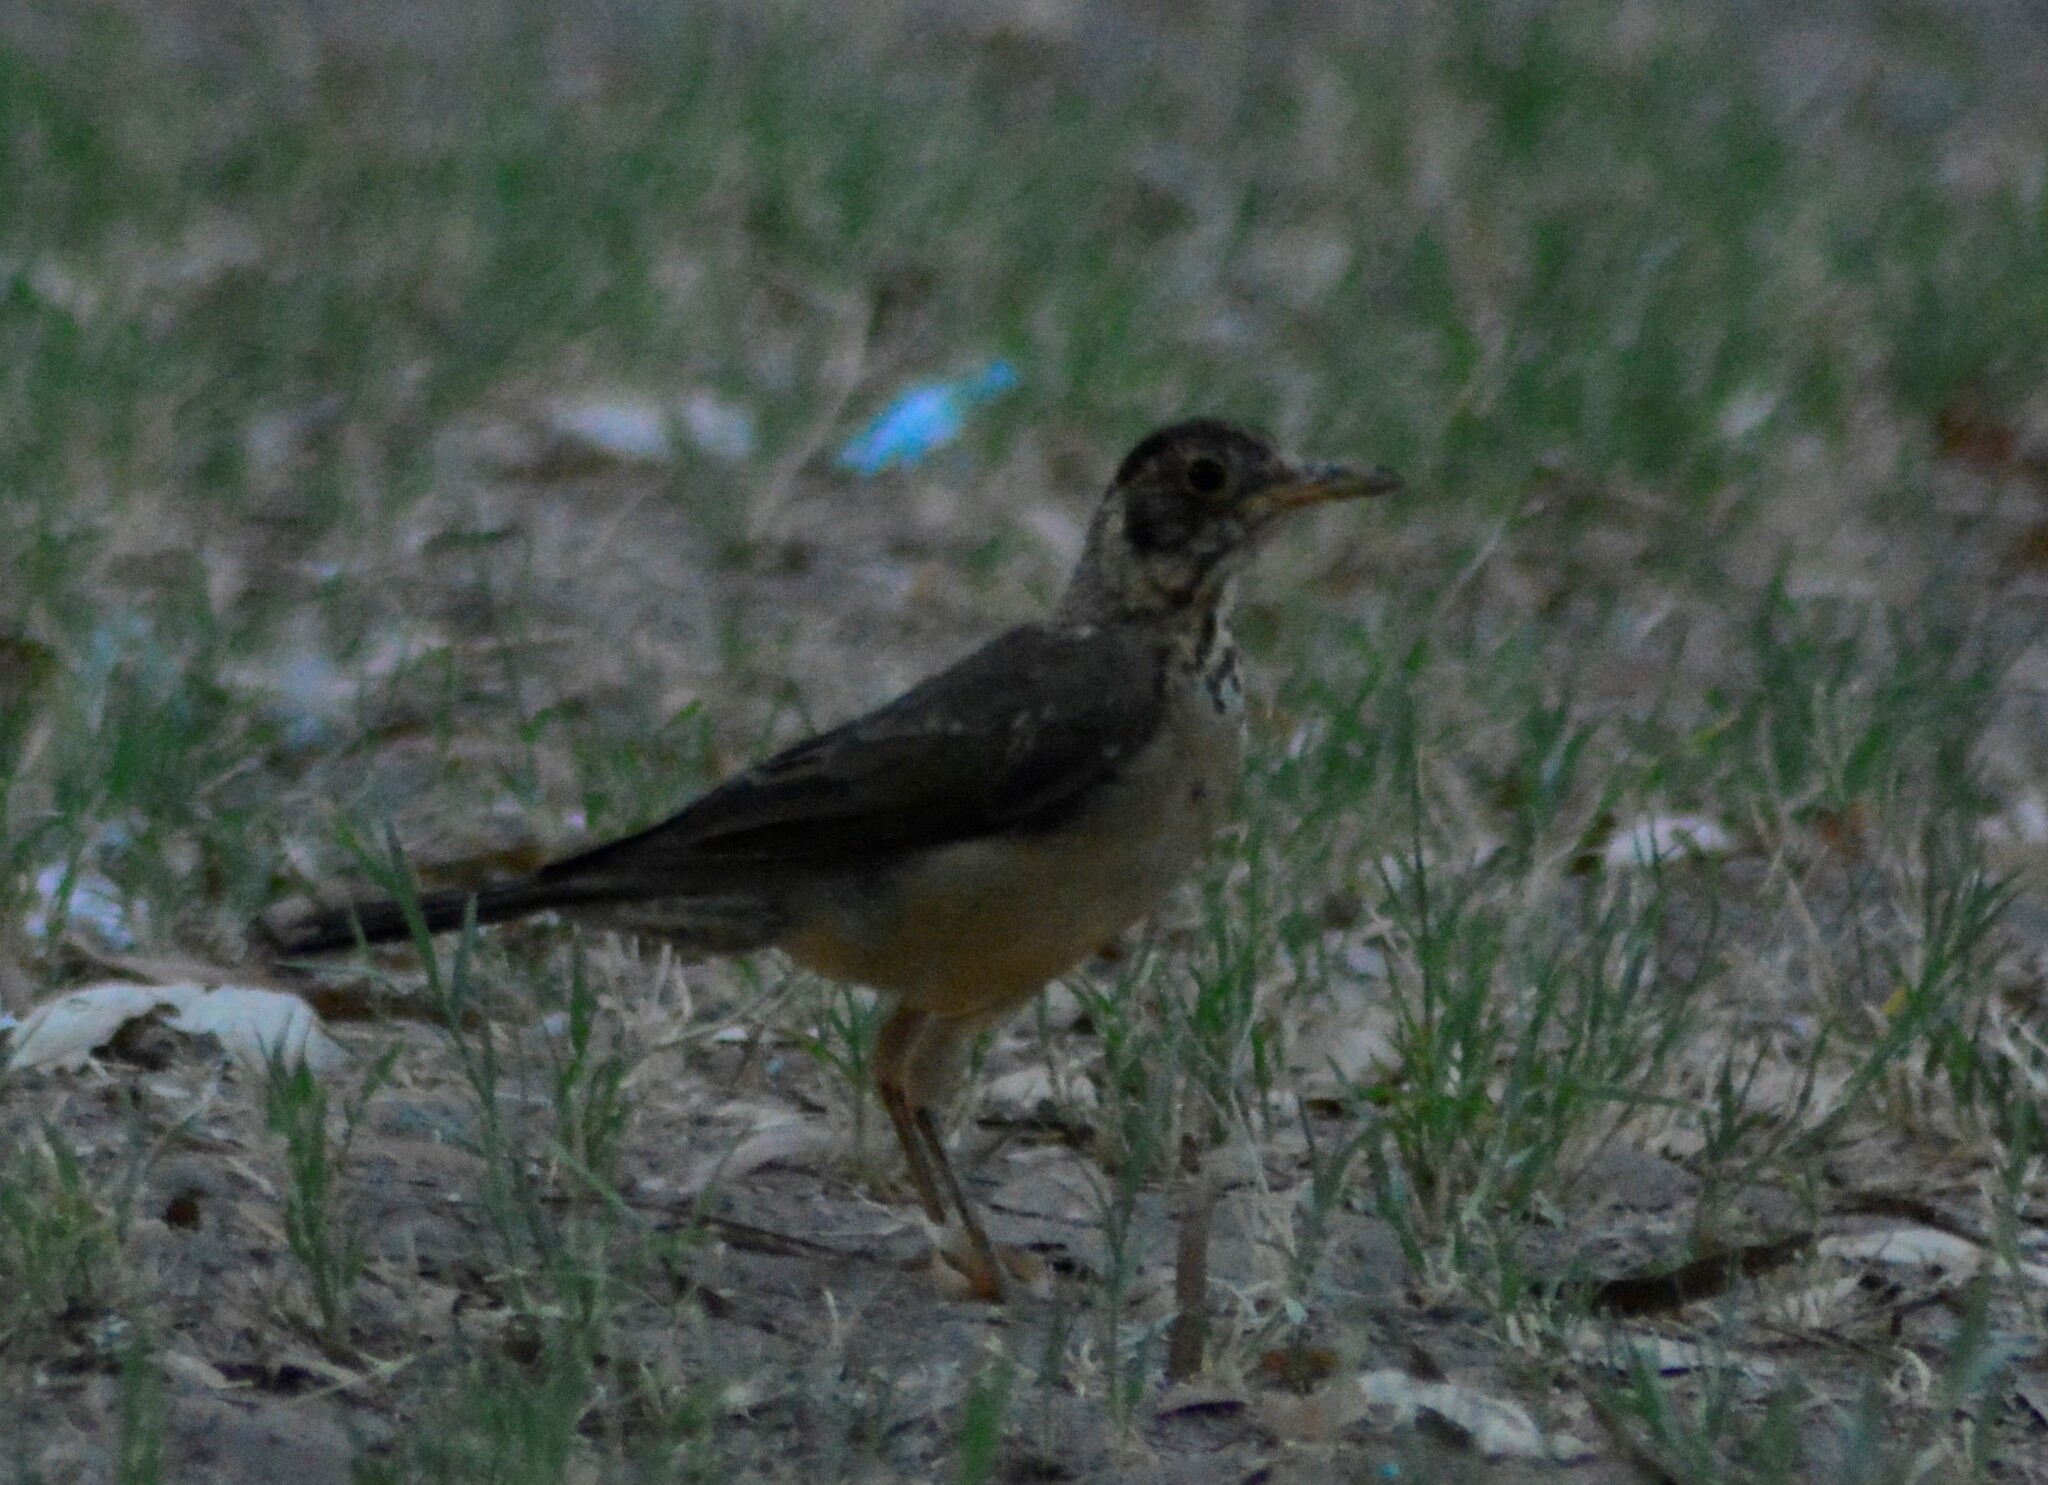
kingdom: Animalia
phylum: Chordata
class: Aves
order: Passeriformes
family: Turdidae
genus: Turdus
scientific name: Turdus falcklandii
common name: Austral thrush
